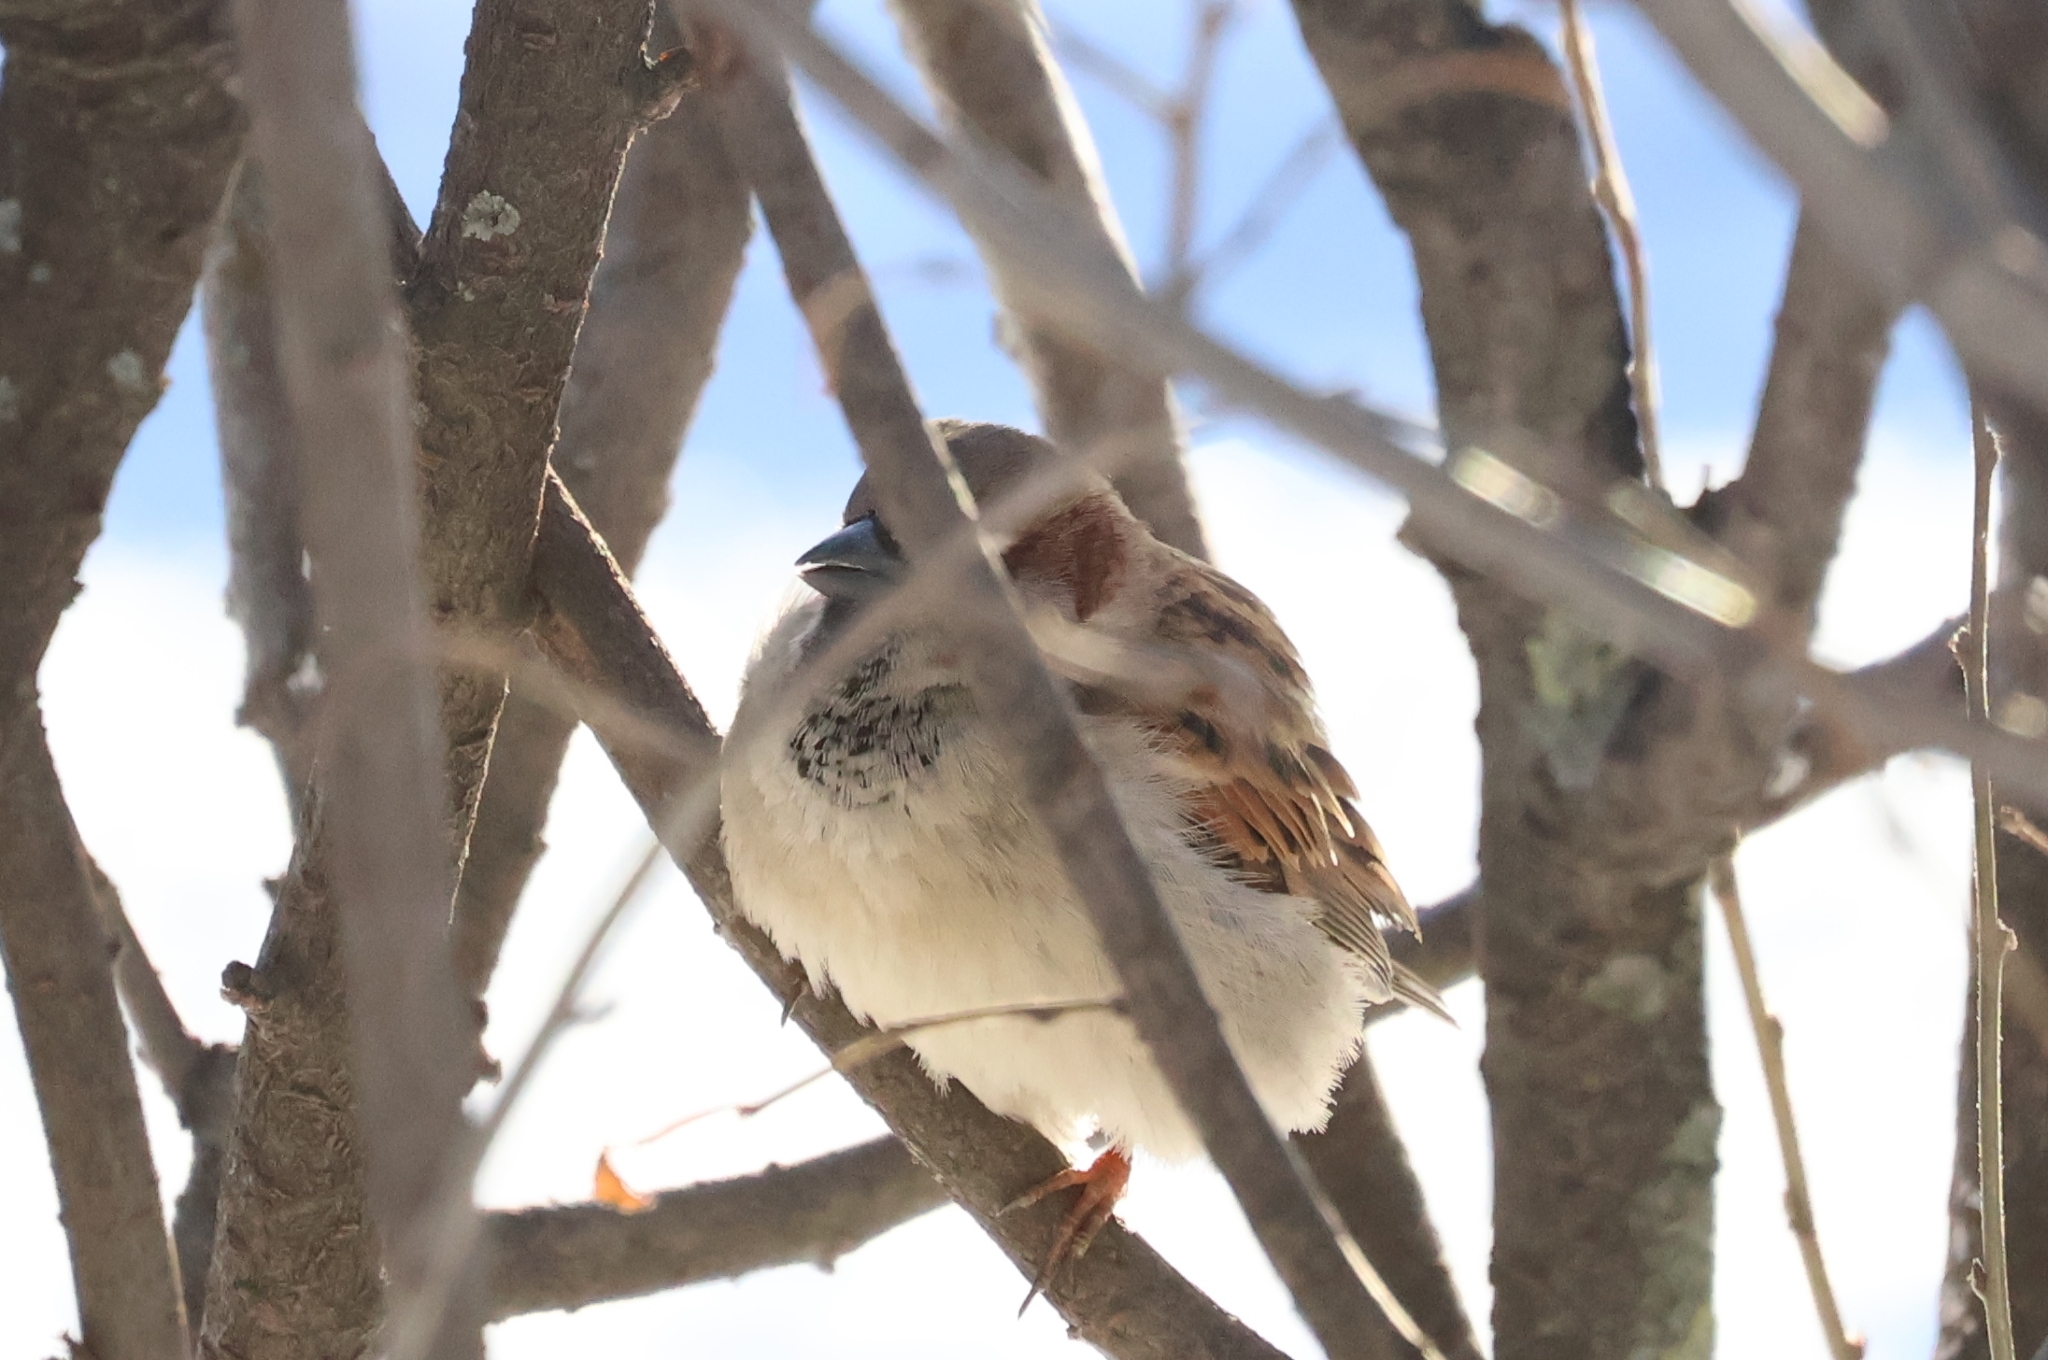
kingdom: Animalia
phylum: Chordata
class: Aves
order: Passeriformes
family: Passeridae
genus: Passer
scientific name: Passer domesticus
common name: House sparrow
